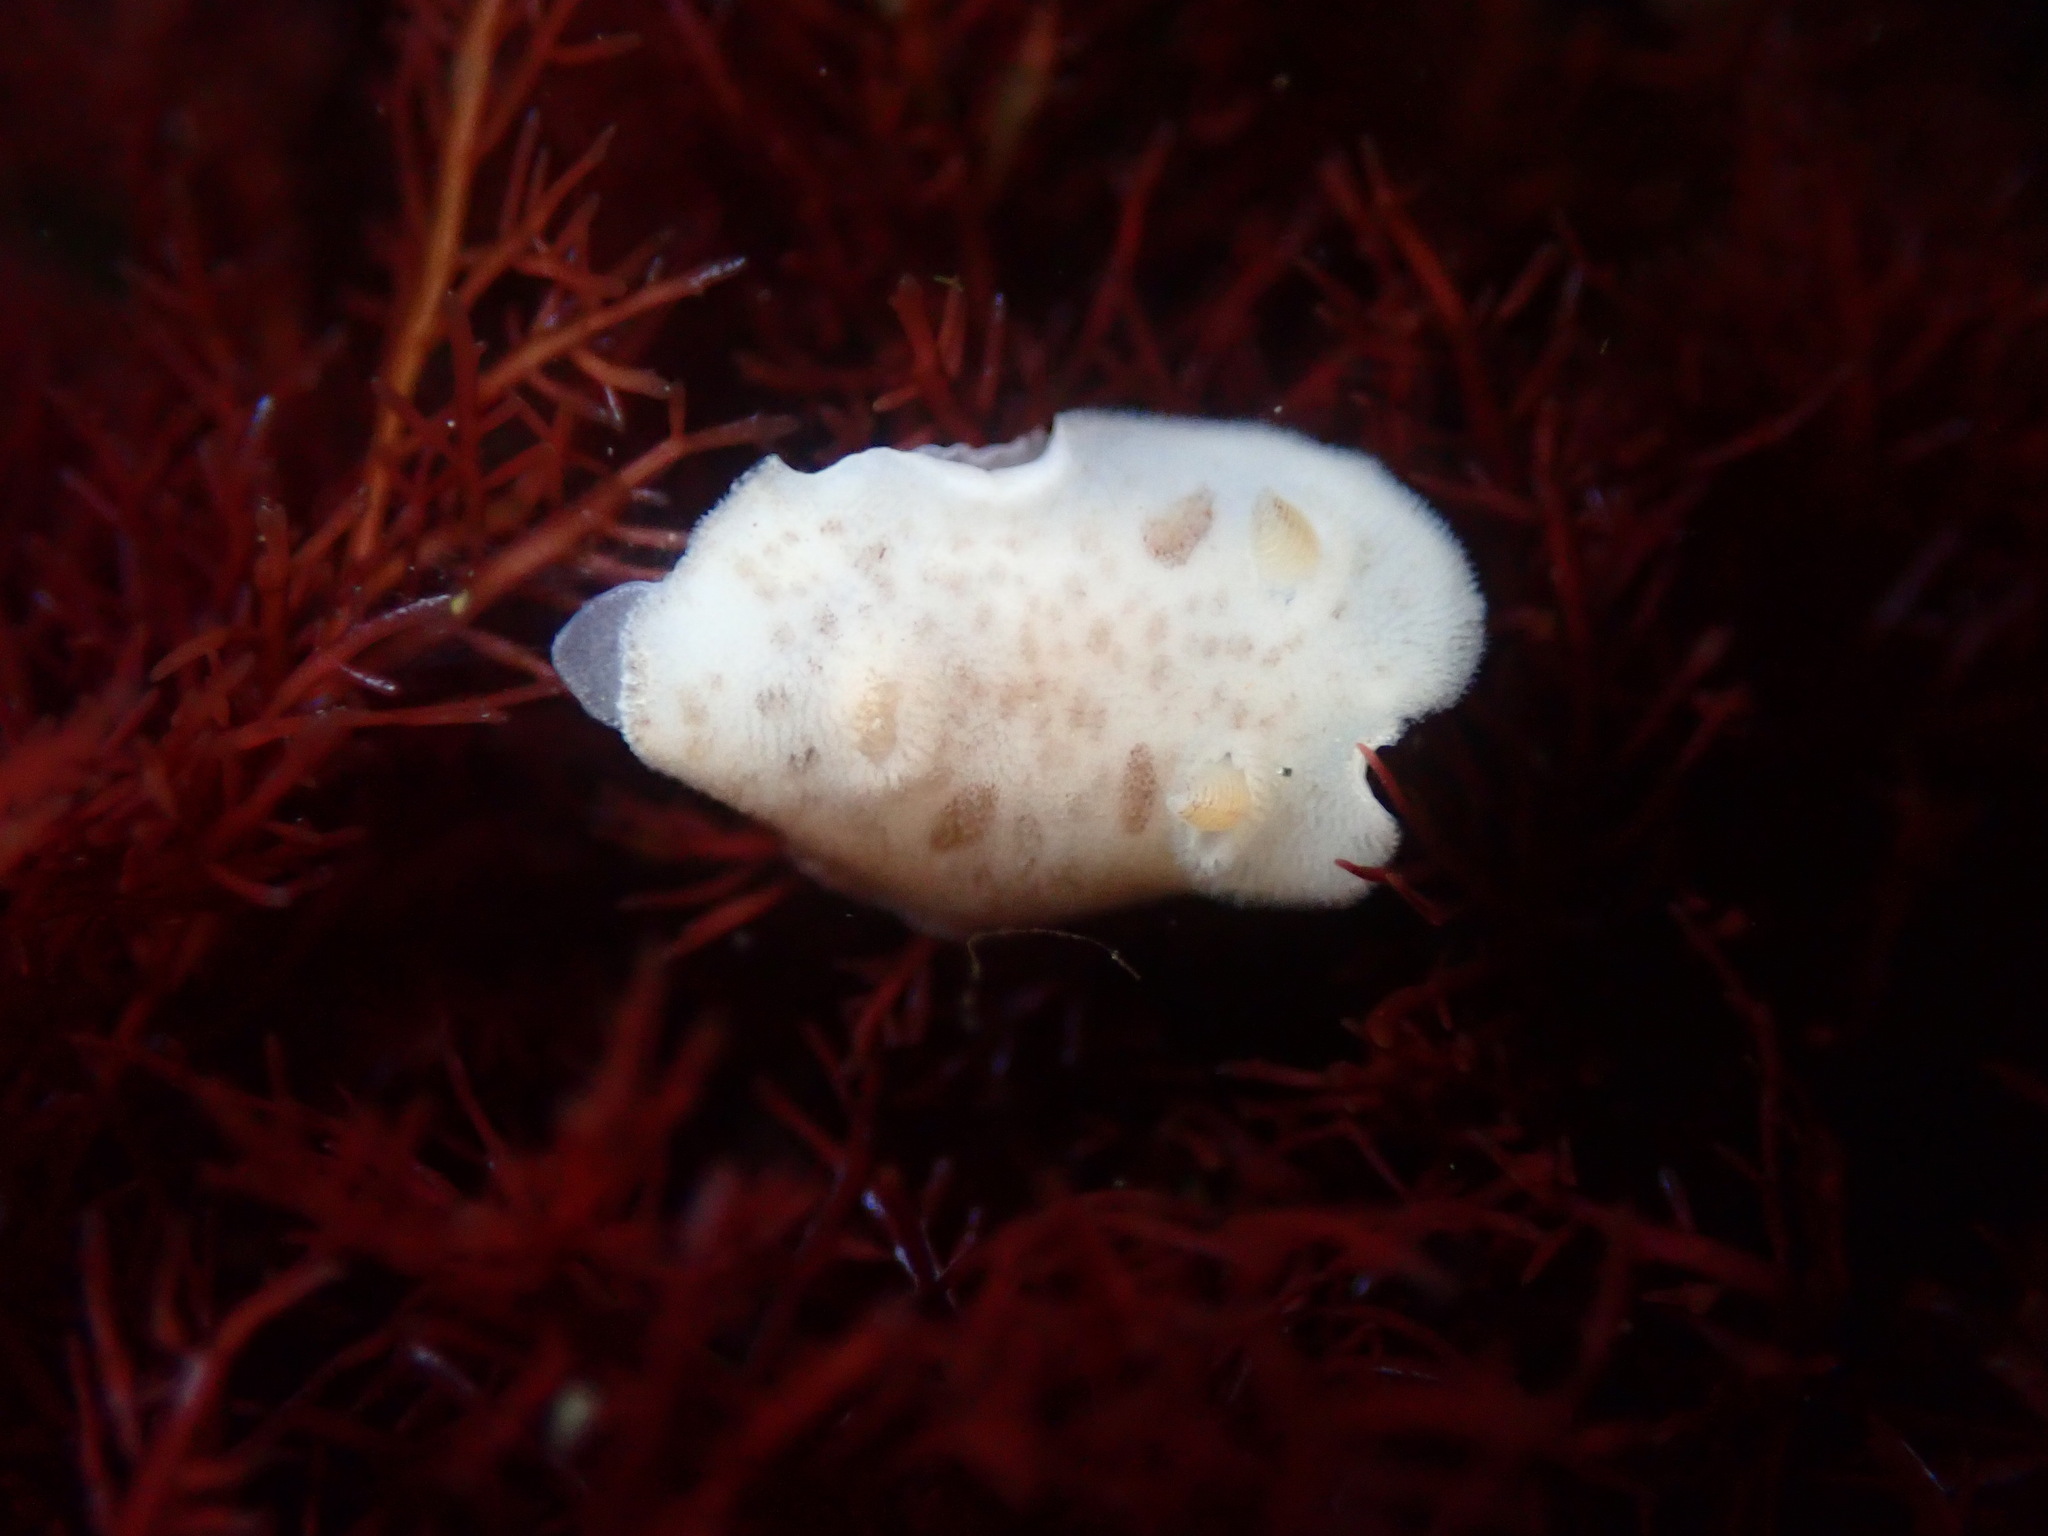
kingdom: Animalia
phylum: Mollusca
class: Gastropoda
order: Nudibranchia
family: Discodorididae
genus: Diaulula
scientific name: Diaulula sandiegensis
